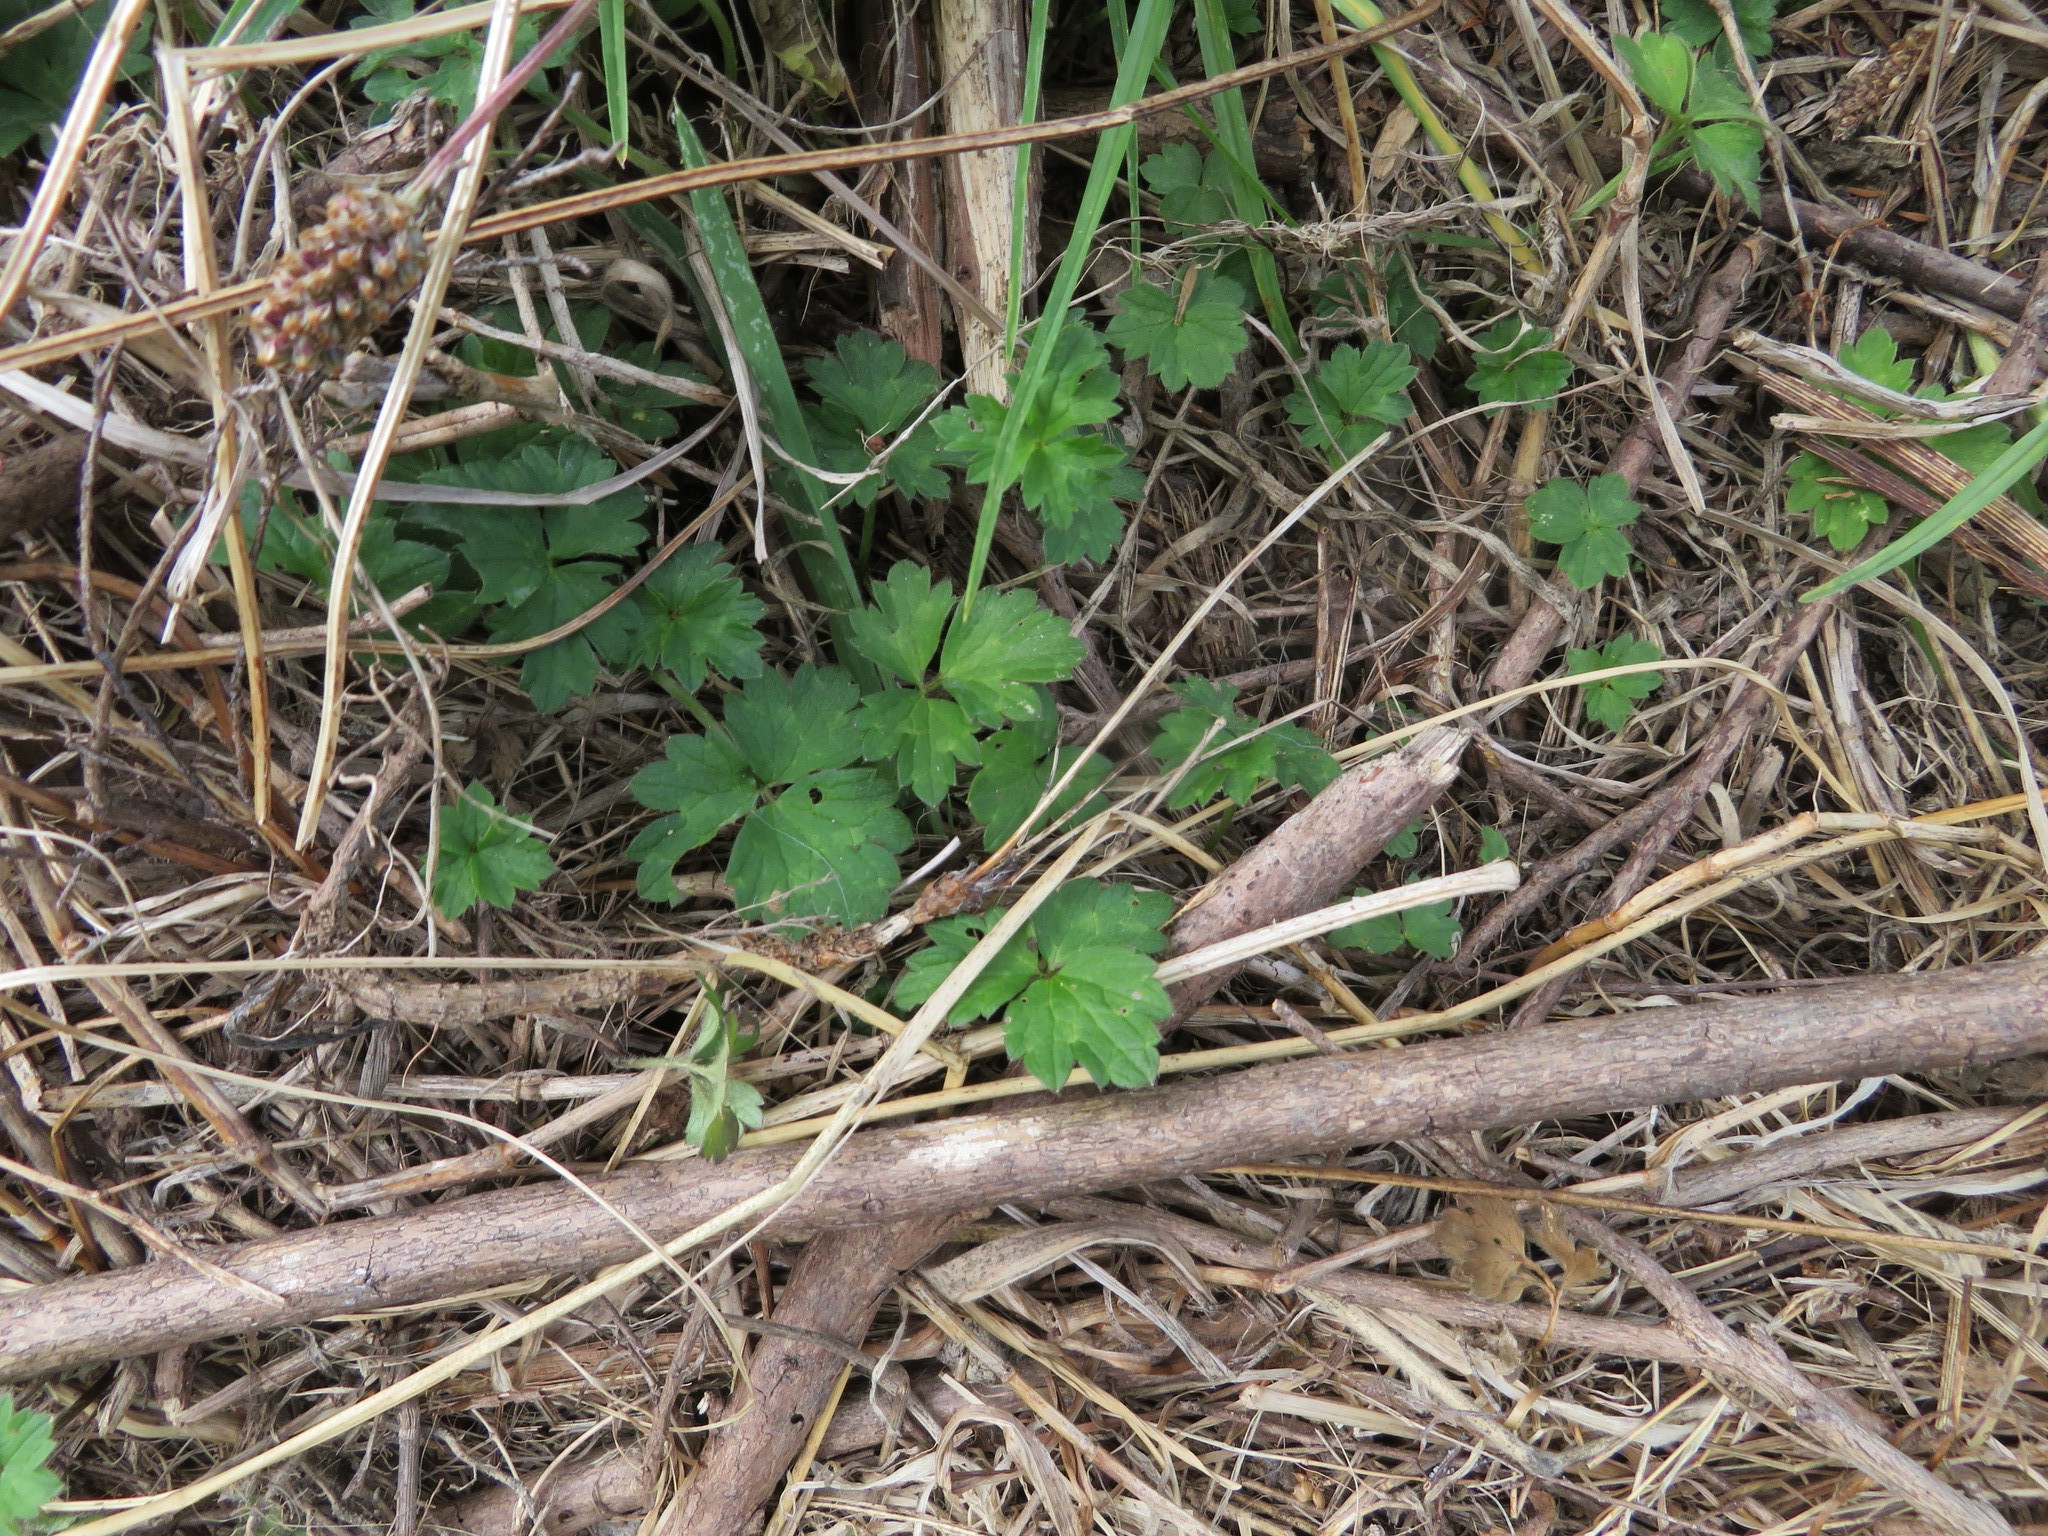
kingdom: Plantae
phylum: Tracheophyta
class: Magnoliopsida
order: Ranunculales
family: Ranunculaceae
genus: Ranunculus
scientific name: Ranunculus repens
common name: Creeping buttercup
